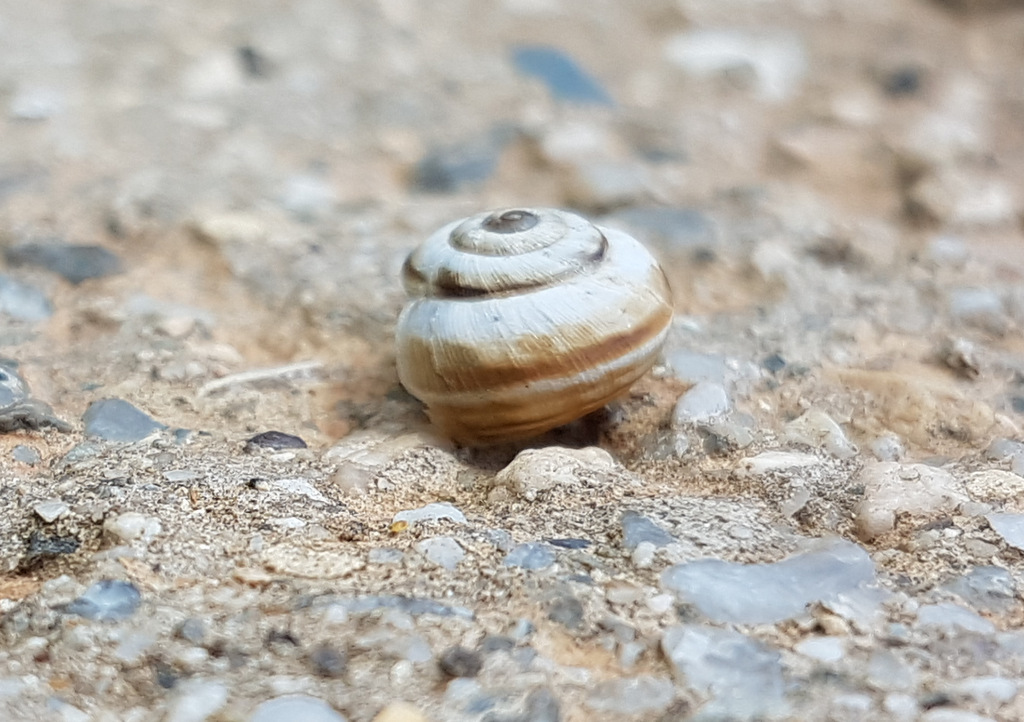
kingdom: Animalia
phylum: Mollusca
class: Gastropoda
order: Stylommatophora
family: Helicidae
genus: Theba
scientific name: Theba pisana
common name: White snail
